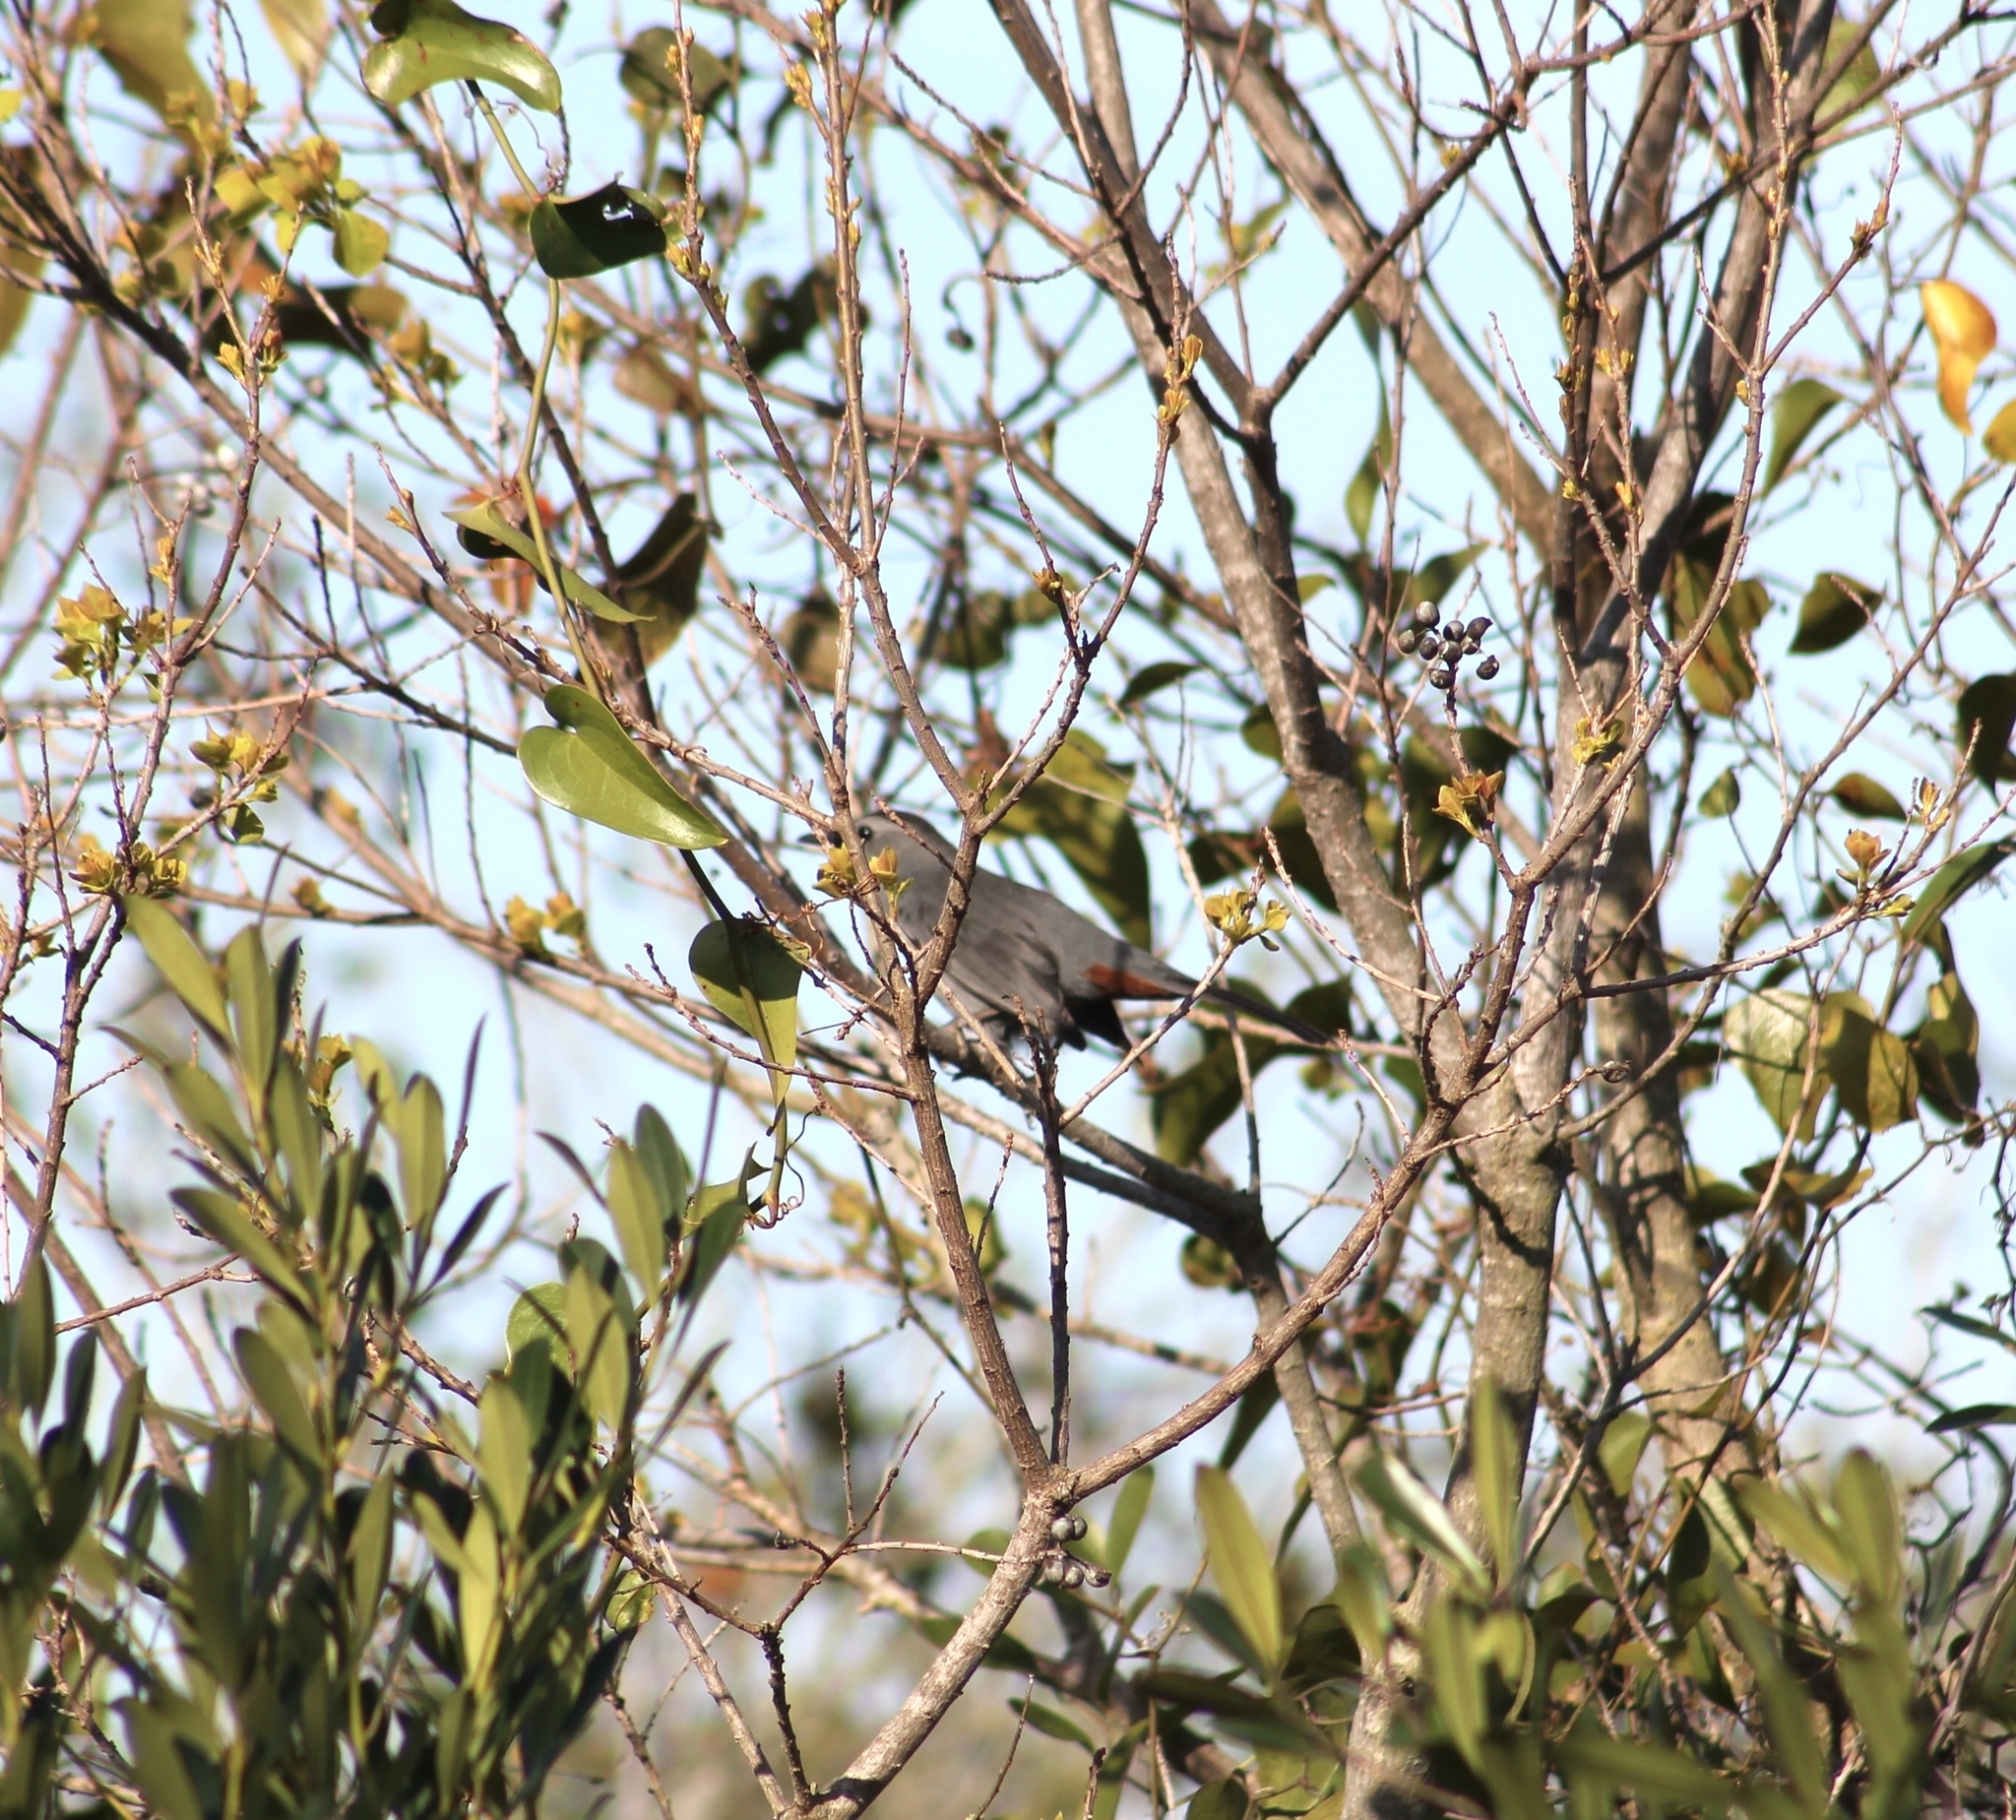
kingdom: Animalia
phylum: Chordata
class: Aves
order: Passeriformes
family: Mimidae
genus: Dumetella
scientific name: Dumetella carolinensis
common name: Gray catbird
